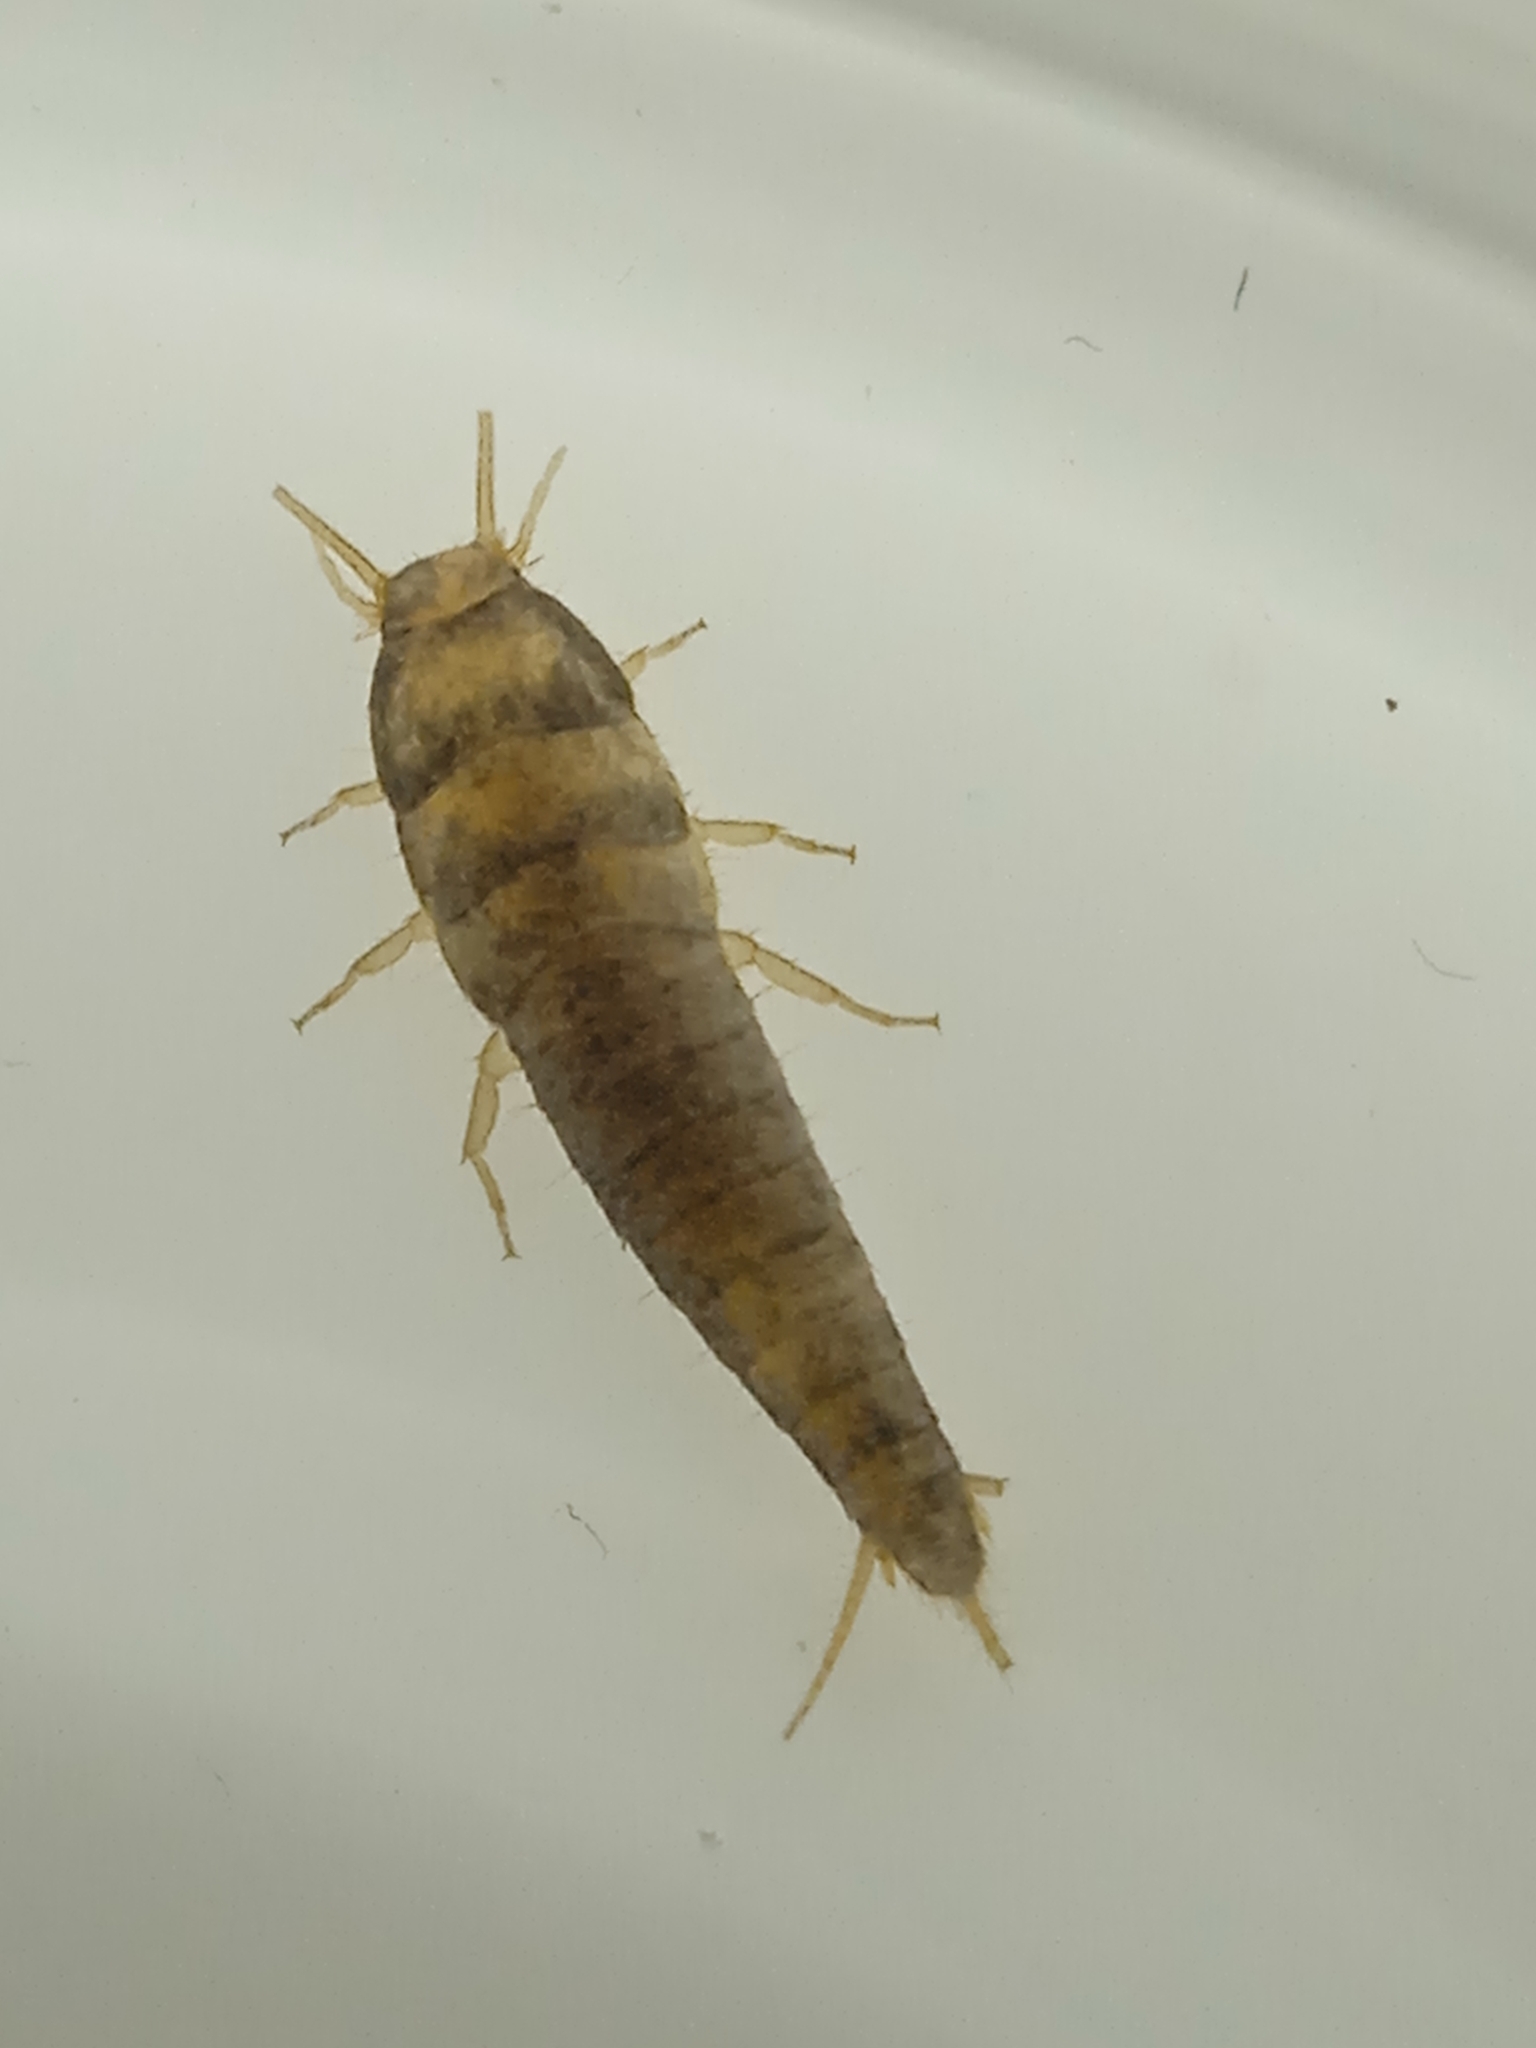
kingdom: Animalia
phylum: Arthropoda
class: Insecta
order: Zygentoma
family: Lepismatidae
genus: Lepisma
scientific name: Lepisma saccharinum
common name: Silverfish
